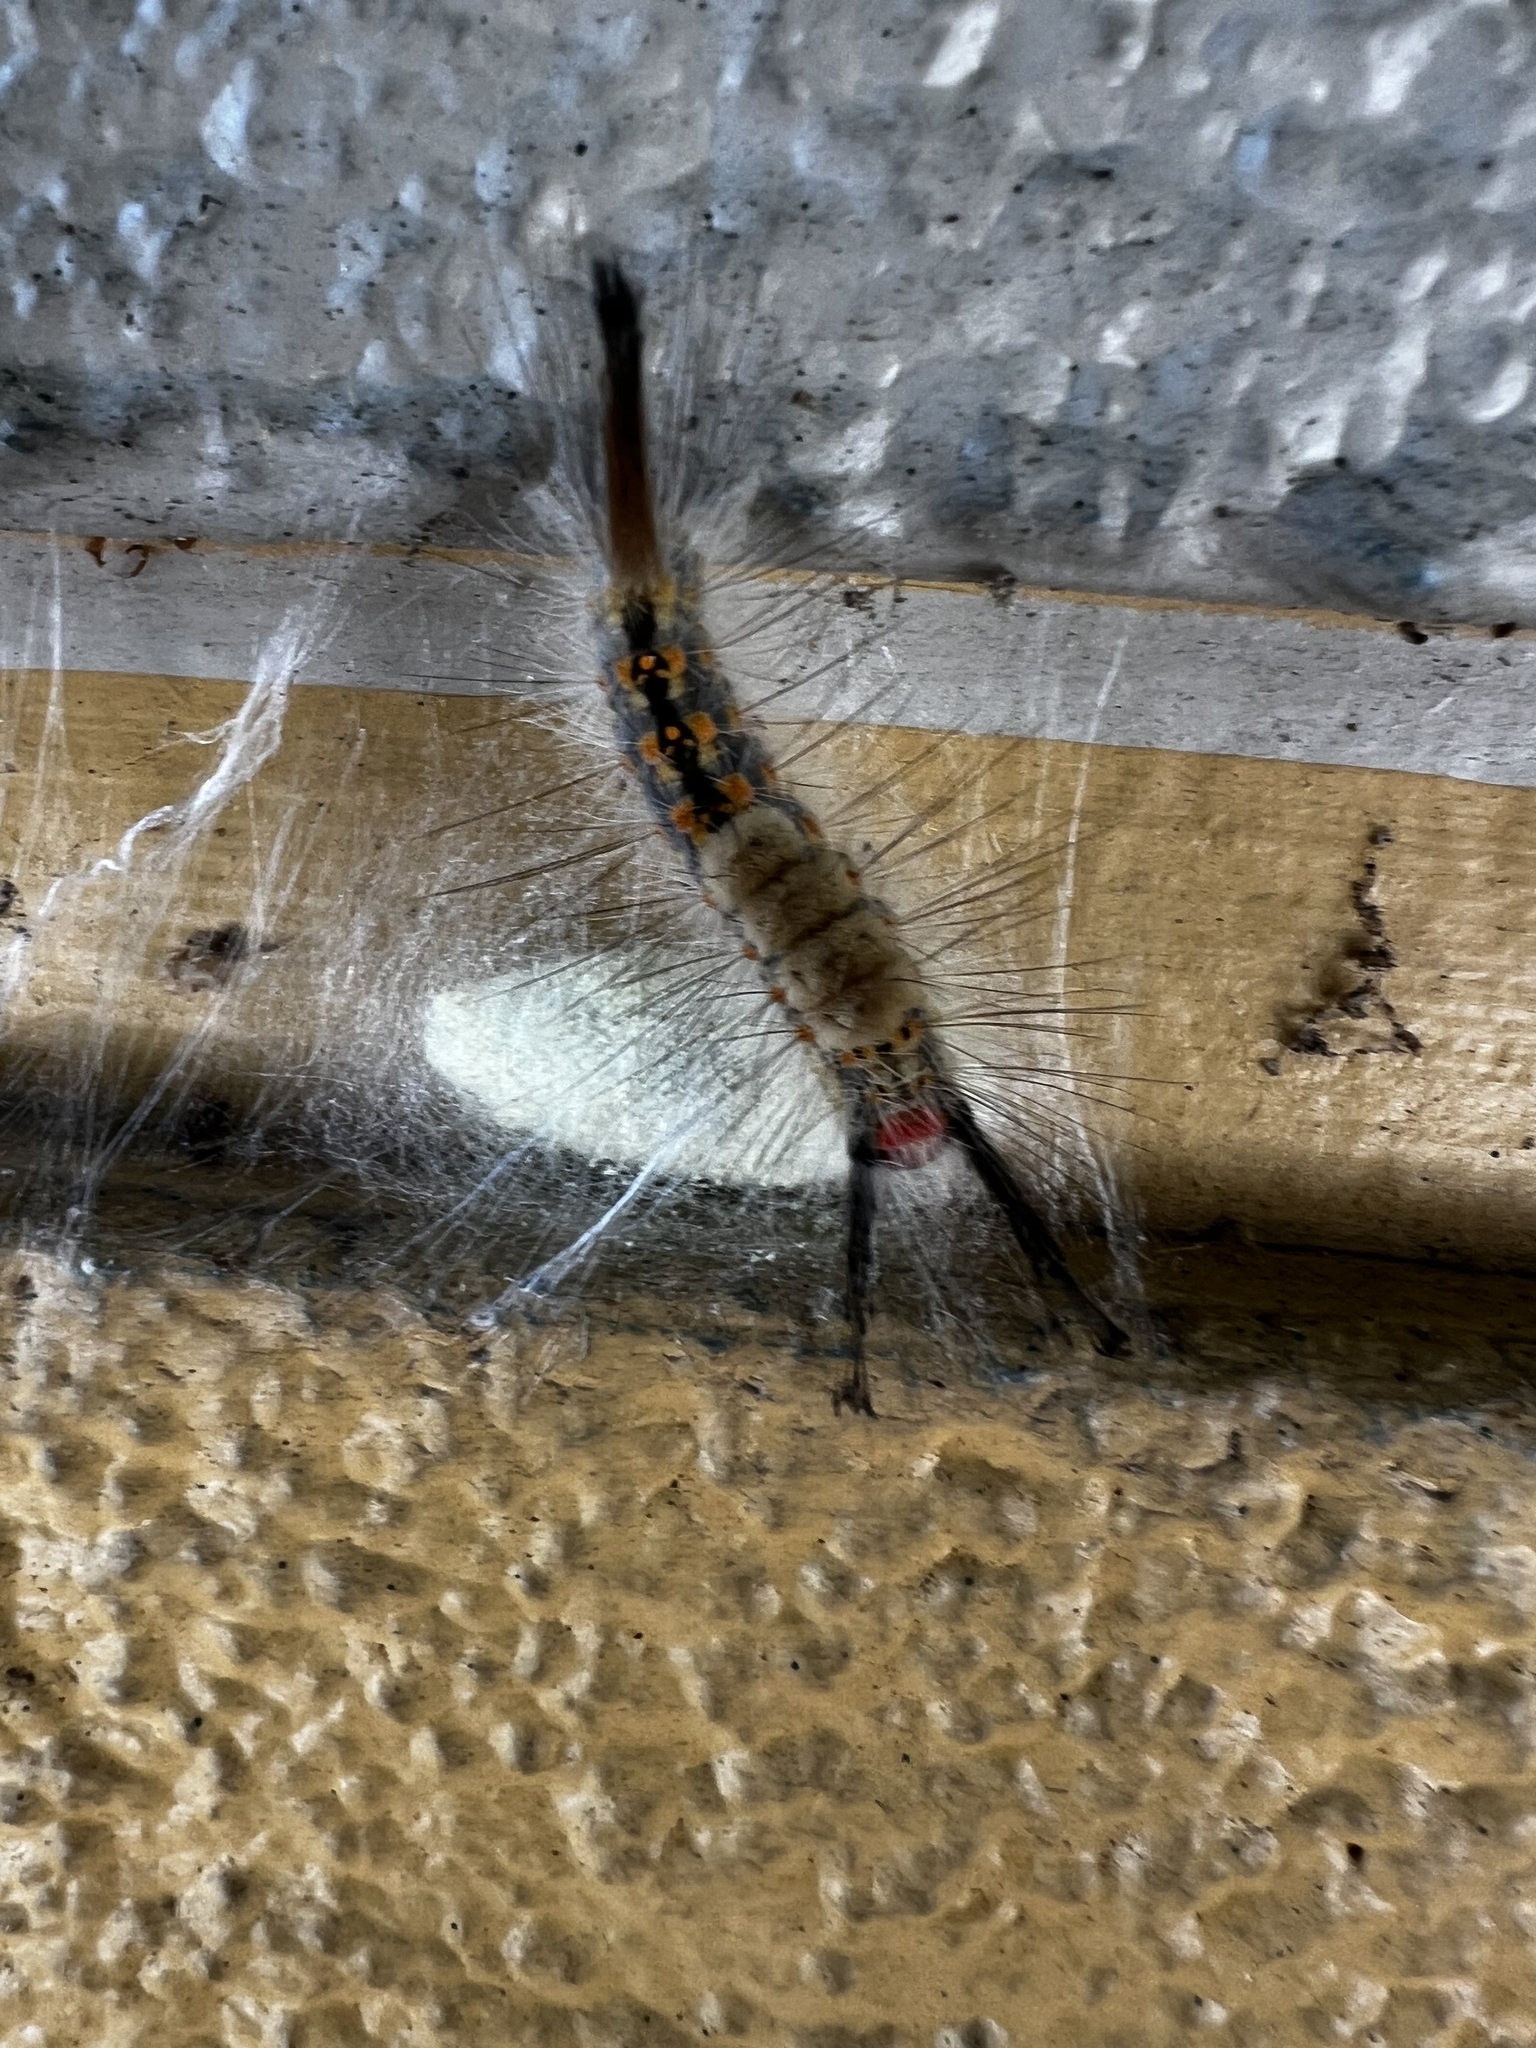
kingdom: Animalia
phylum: Arthropoda
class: Insecta
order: Lepidoptera
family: Erebidae
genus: Orgyia
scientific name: Orgyia detrita
